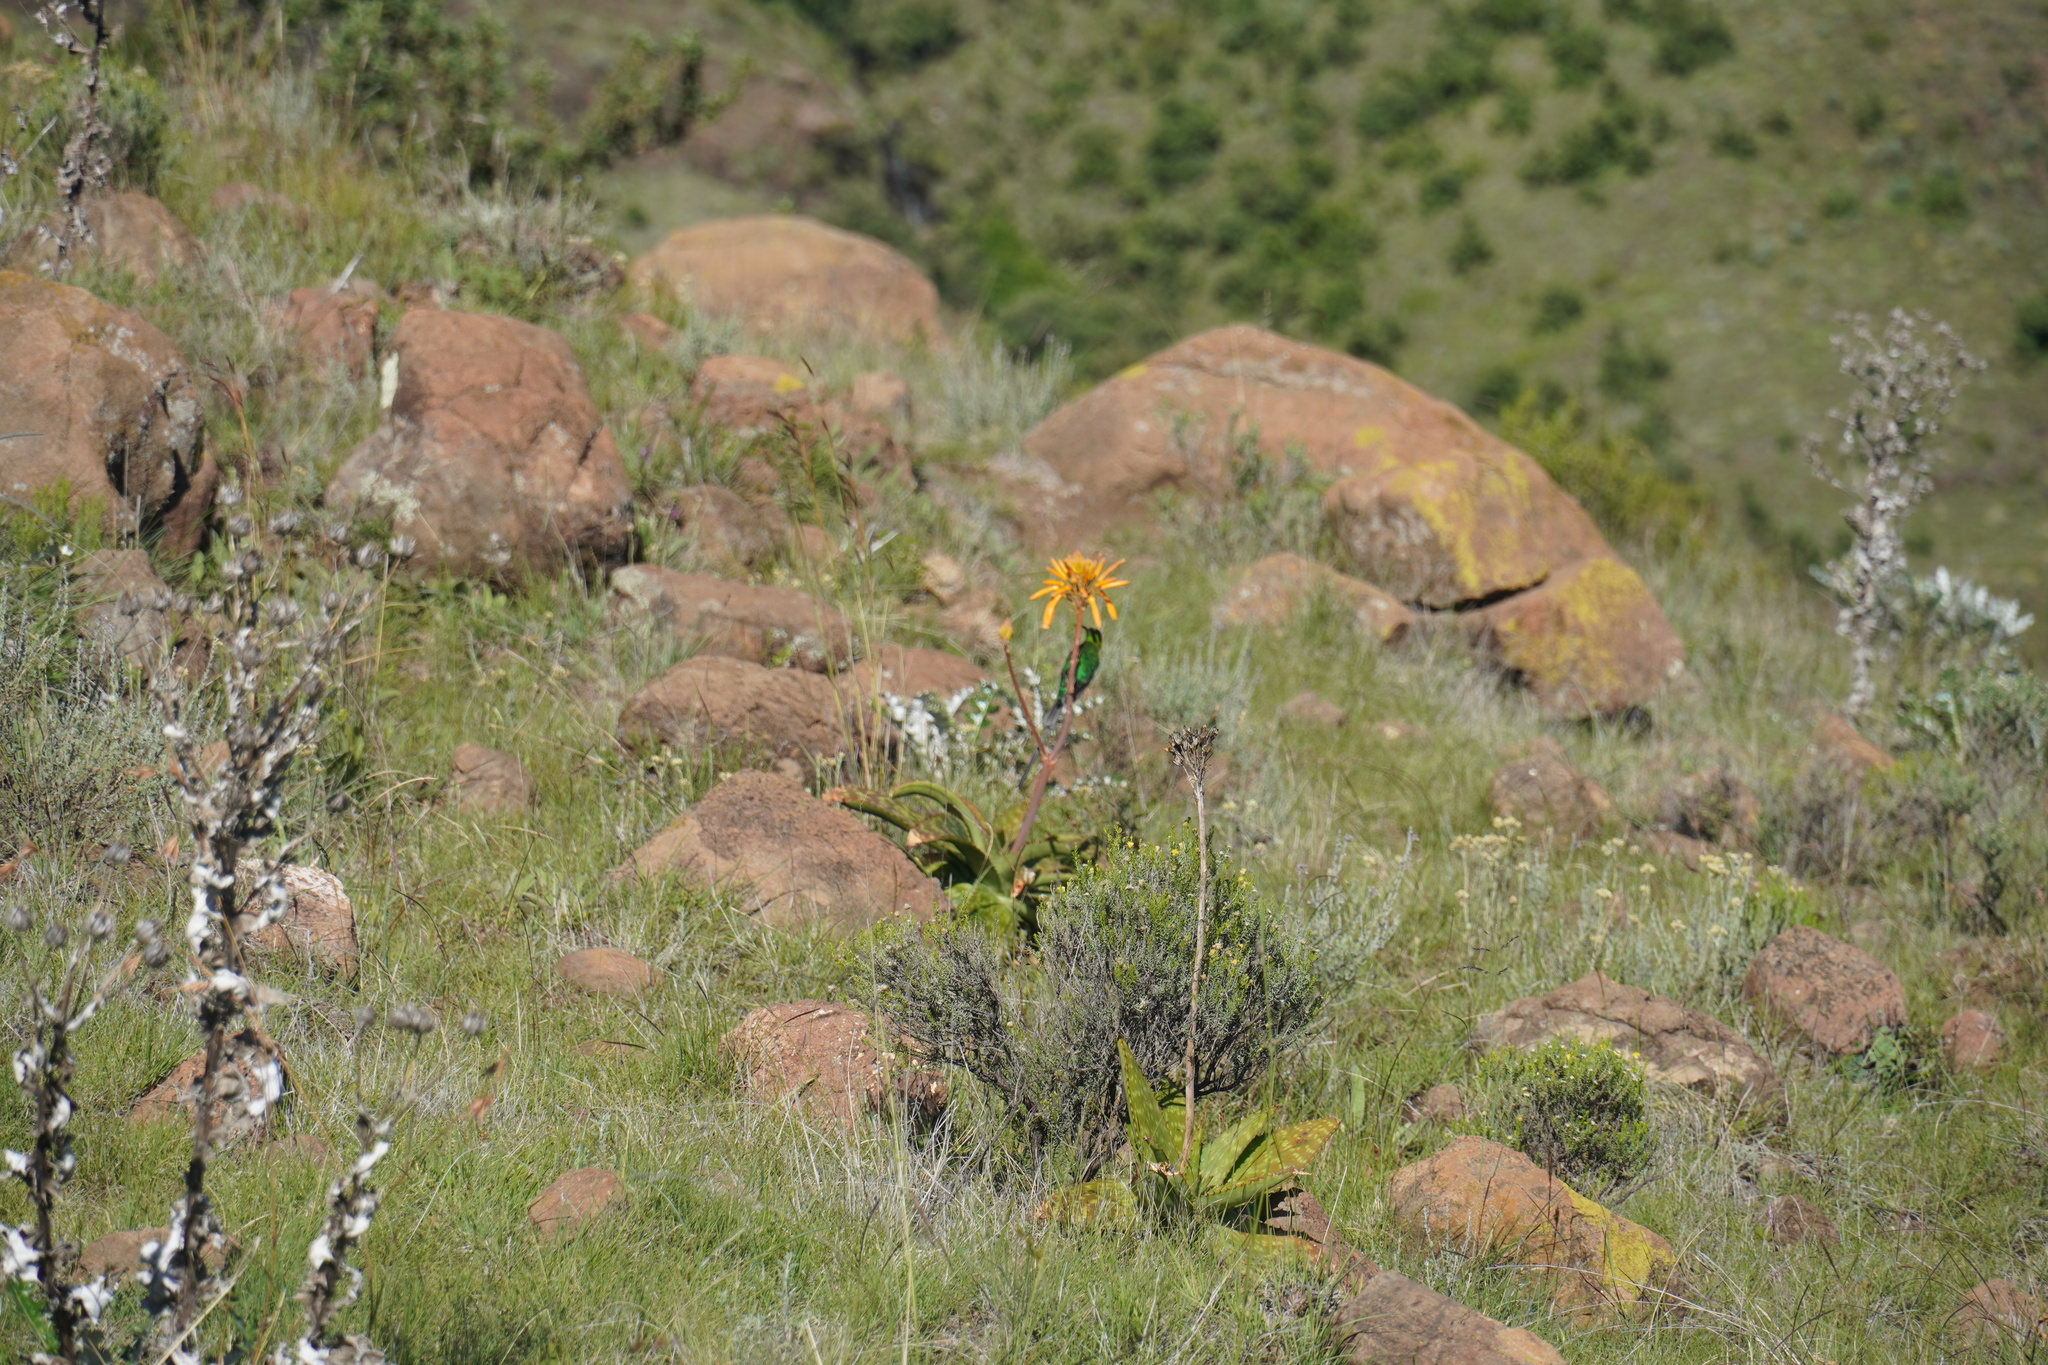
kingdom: Animalia
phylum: Chordata
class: Aves
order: Passeriformes
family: Nectariniidae
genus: Nectarinia
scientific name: Nectarinia famosa
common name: Malachite sunbird
